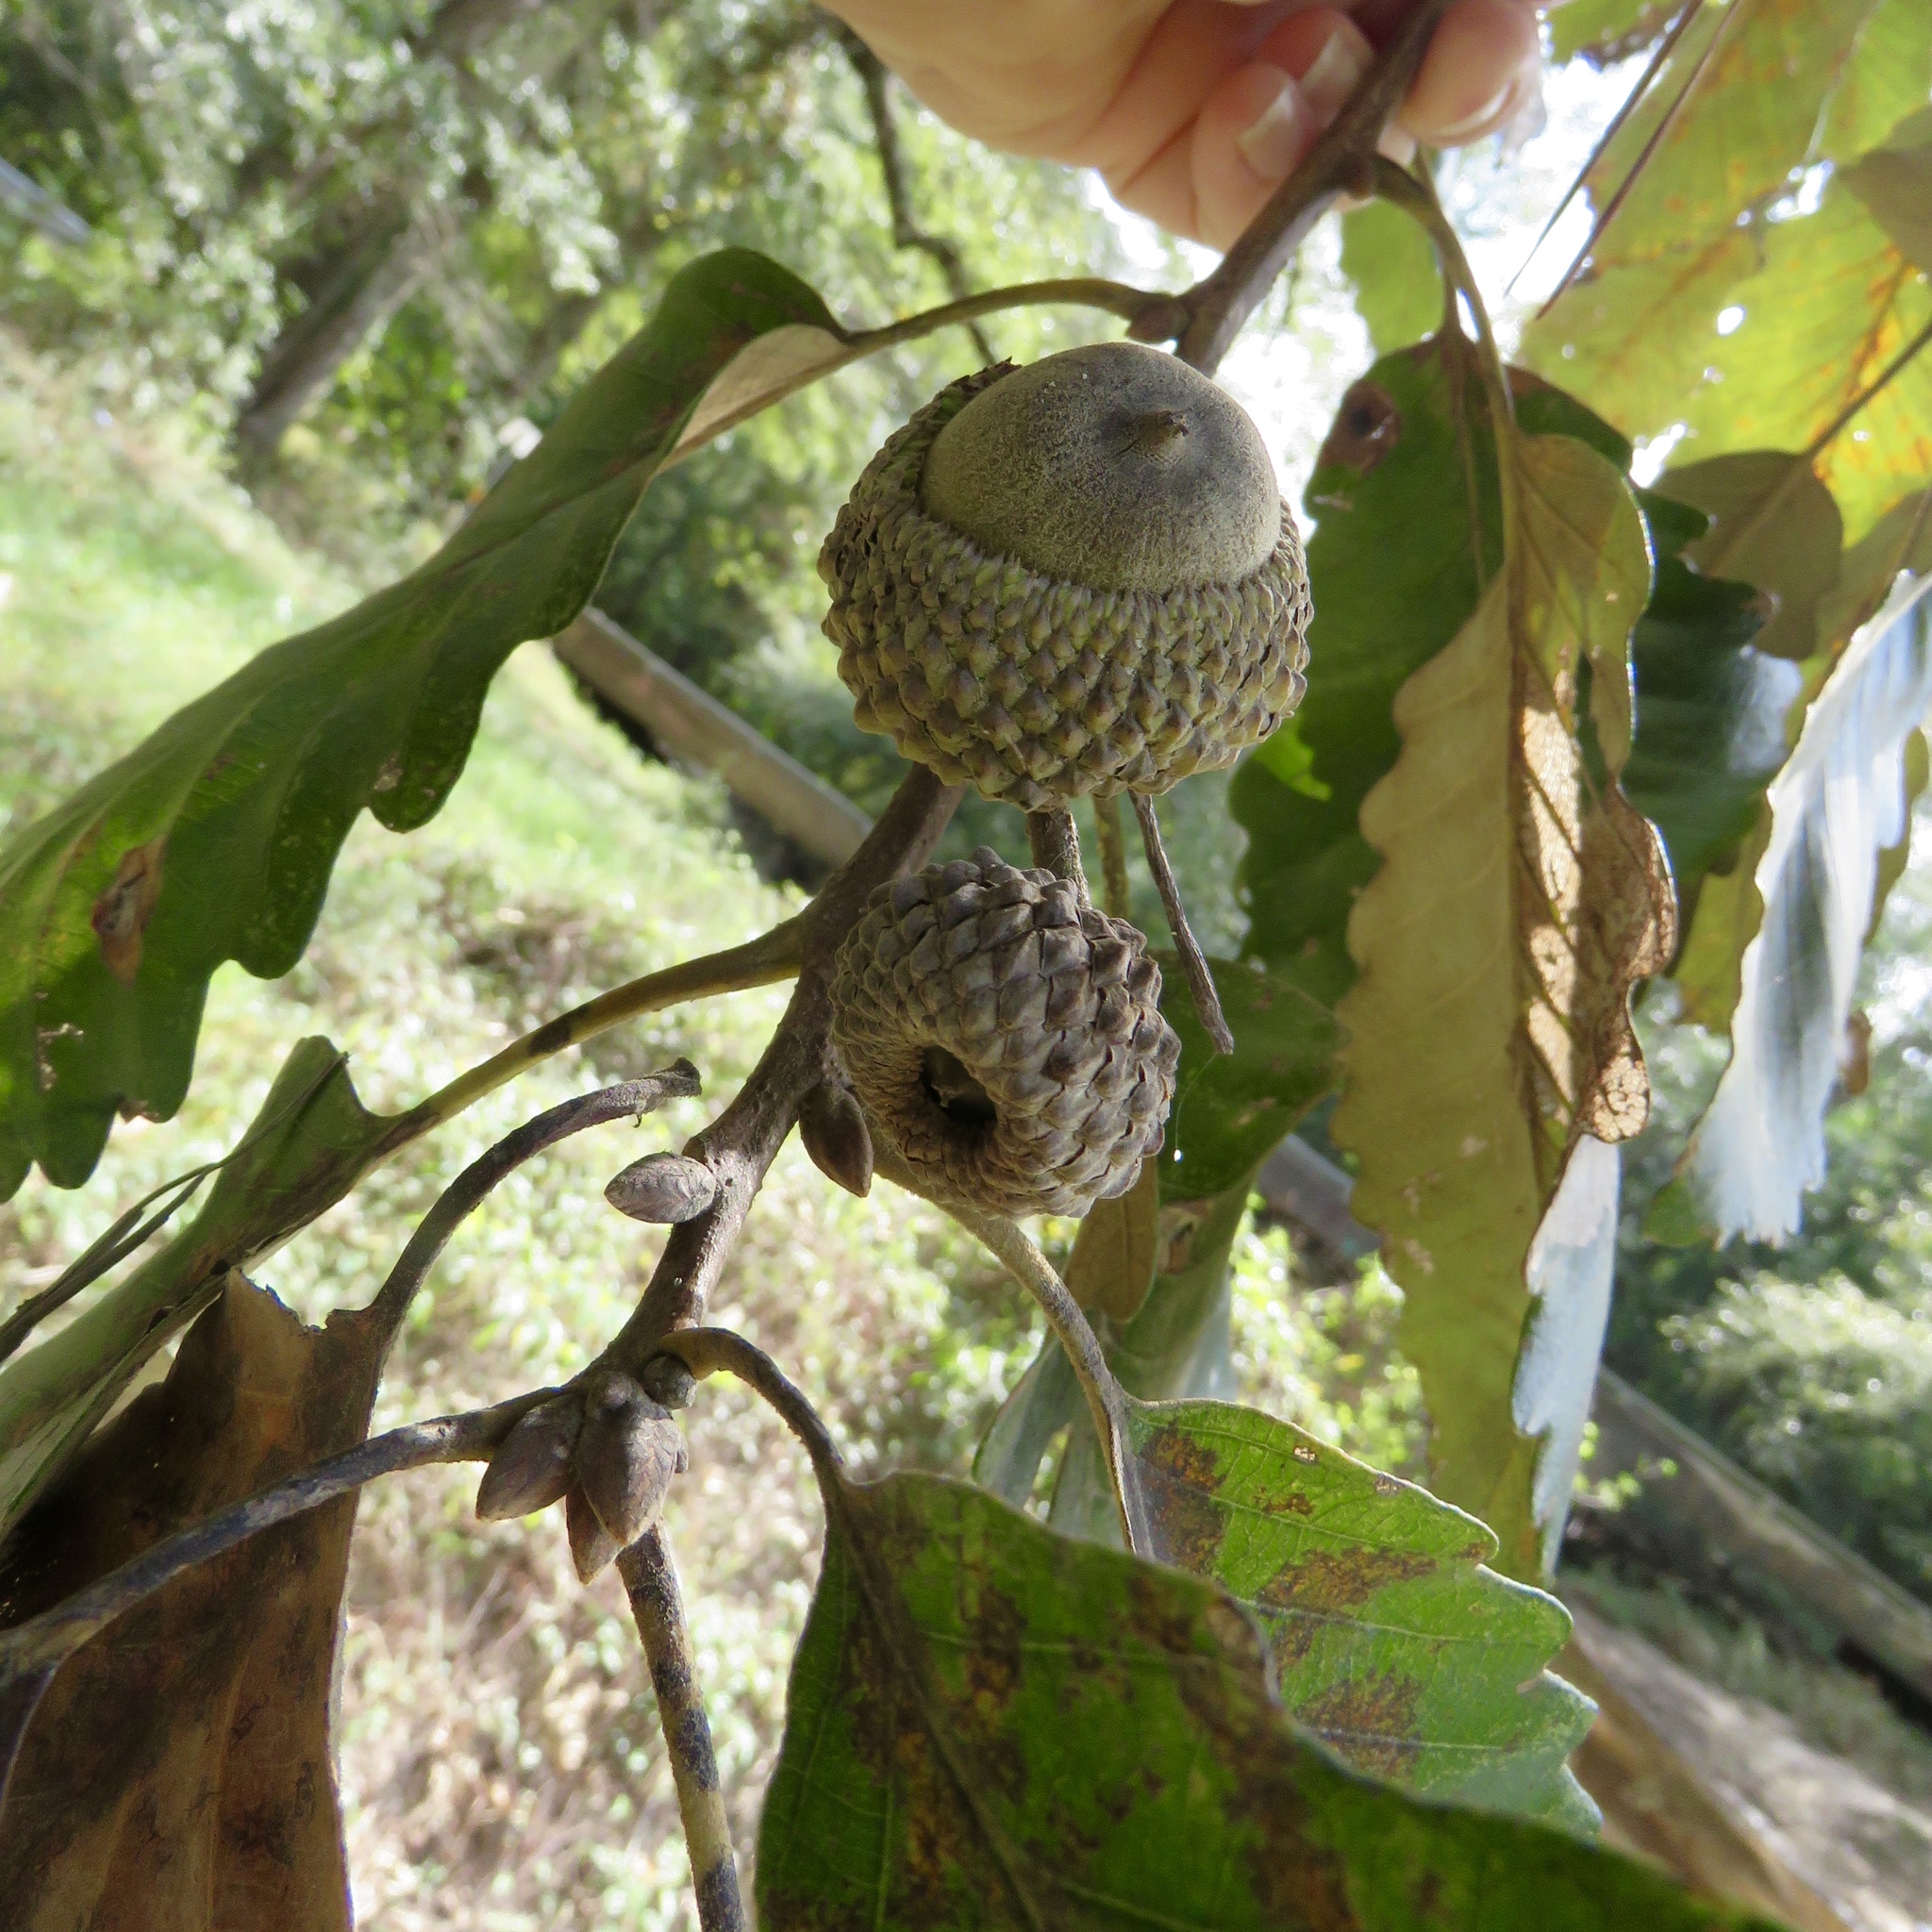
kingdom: Plantae
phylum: Tracheophyta
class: Magnoliopsida
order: Fagales
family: Fagaceae
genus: Quercus
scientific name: Quercus michauxii
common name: Swamp chestnut oak
